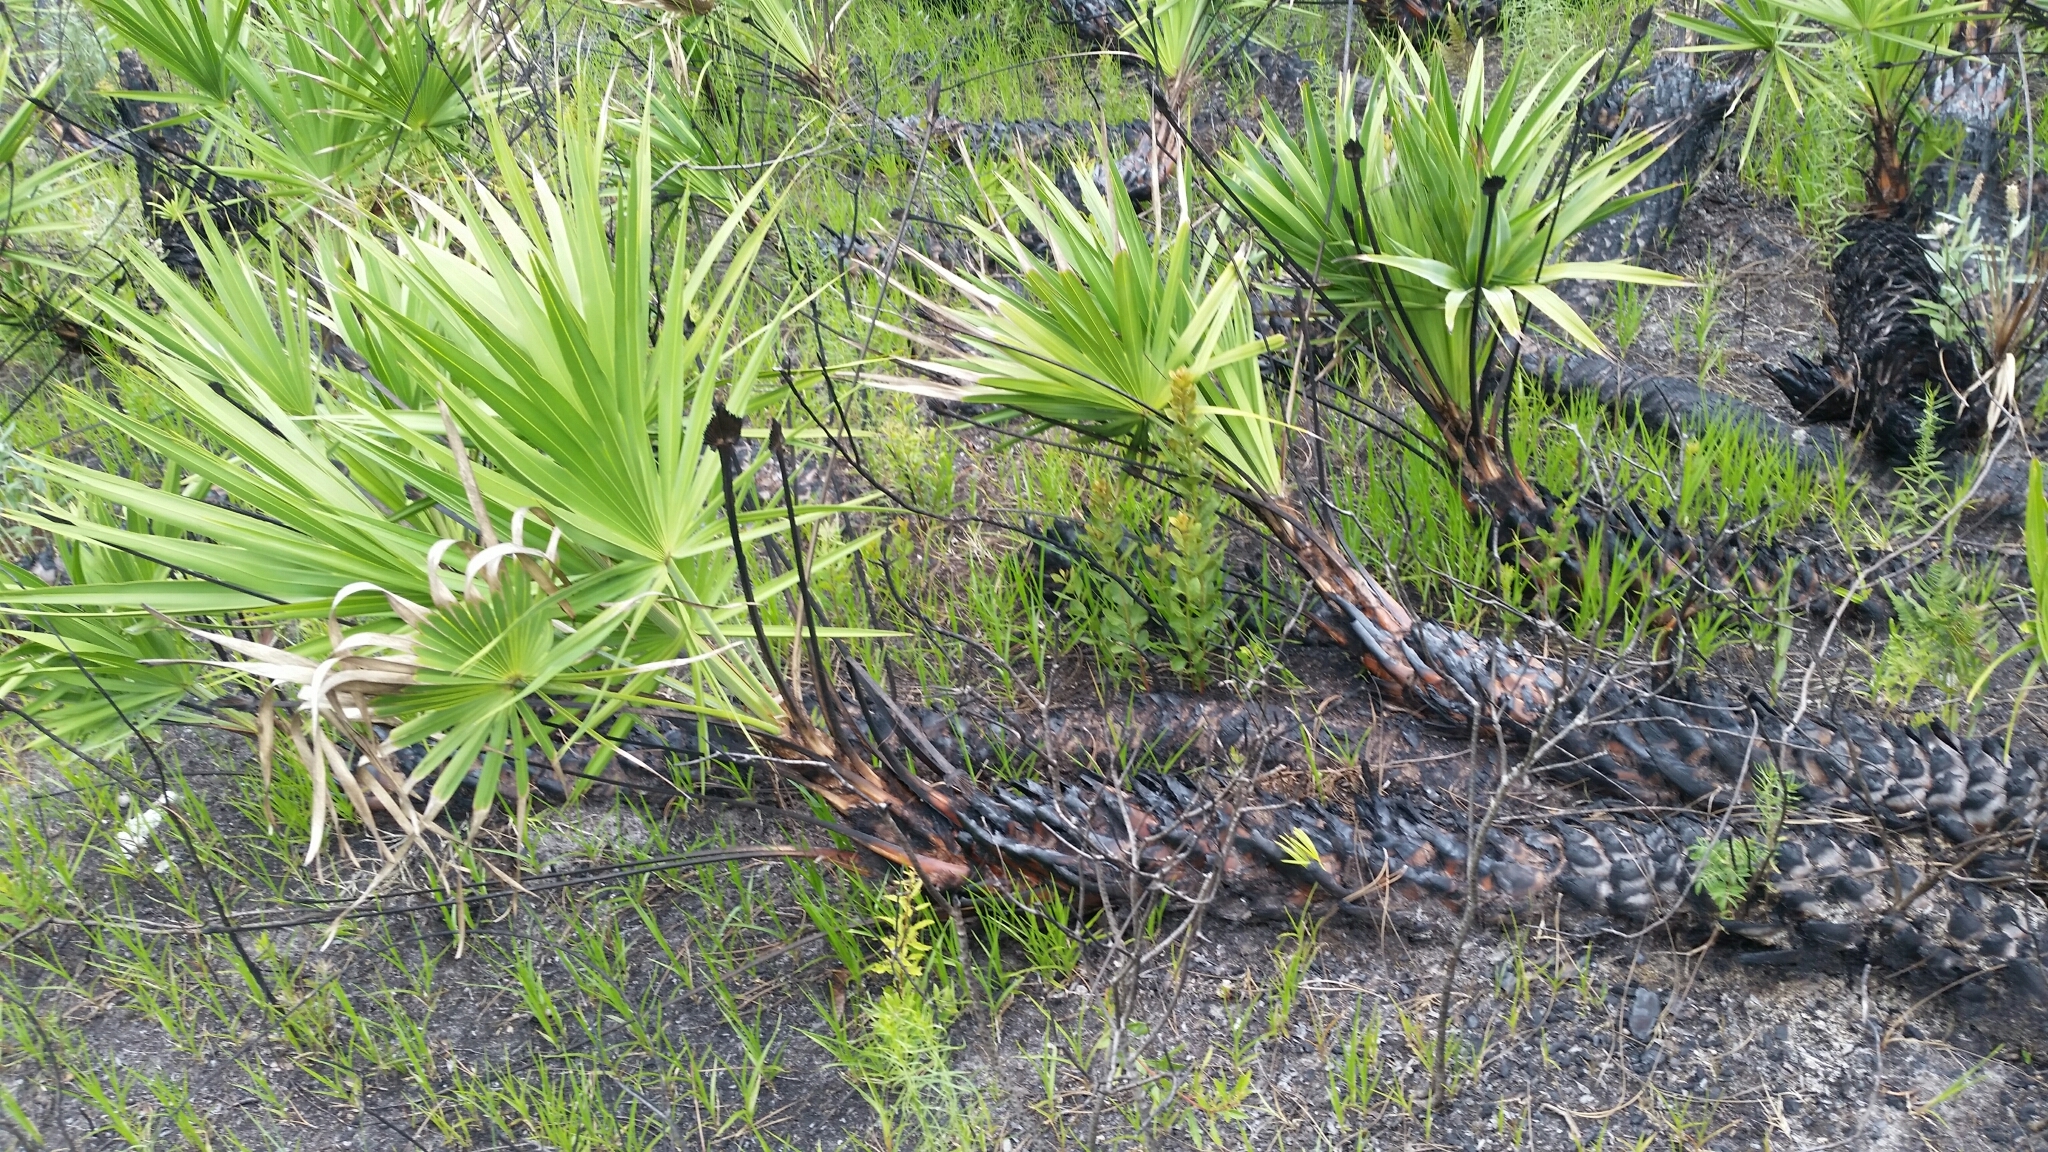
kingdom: Plantae
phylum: Tracheophyta
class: Liliopsida
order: Arecales
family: Arecaceae
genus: Serenoa
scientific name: Serenoa repens
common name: Saw-palmetto
